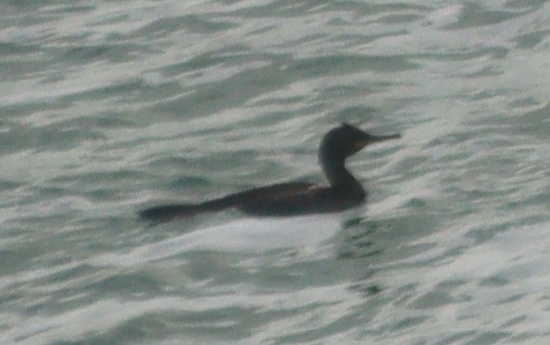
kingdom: Animalia
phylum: Chordata
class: Aves
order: Suliformes
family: Phalacrocoracidae
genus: Phalacrocorax
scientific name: Phalacrocorax aristotelis
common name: European shag
